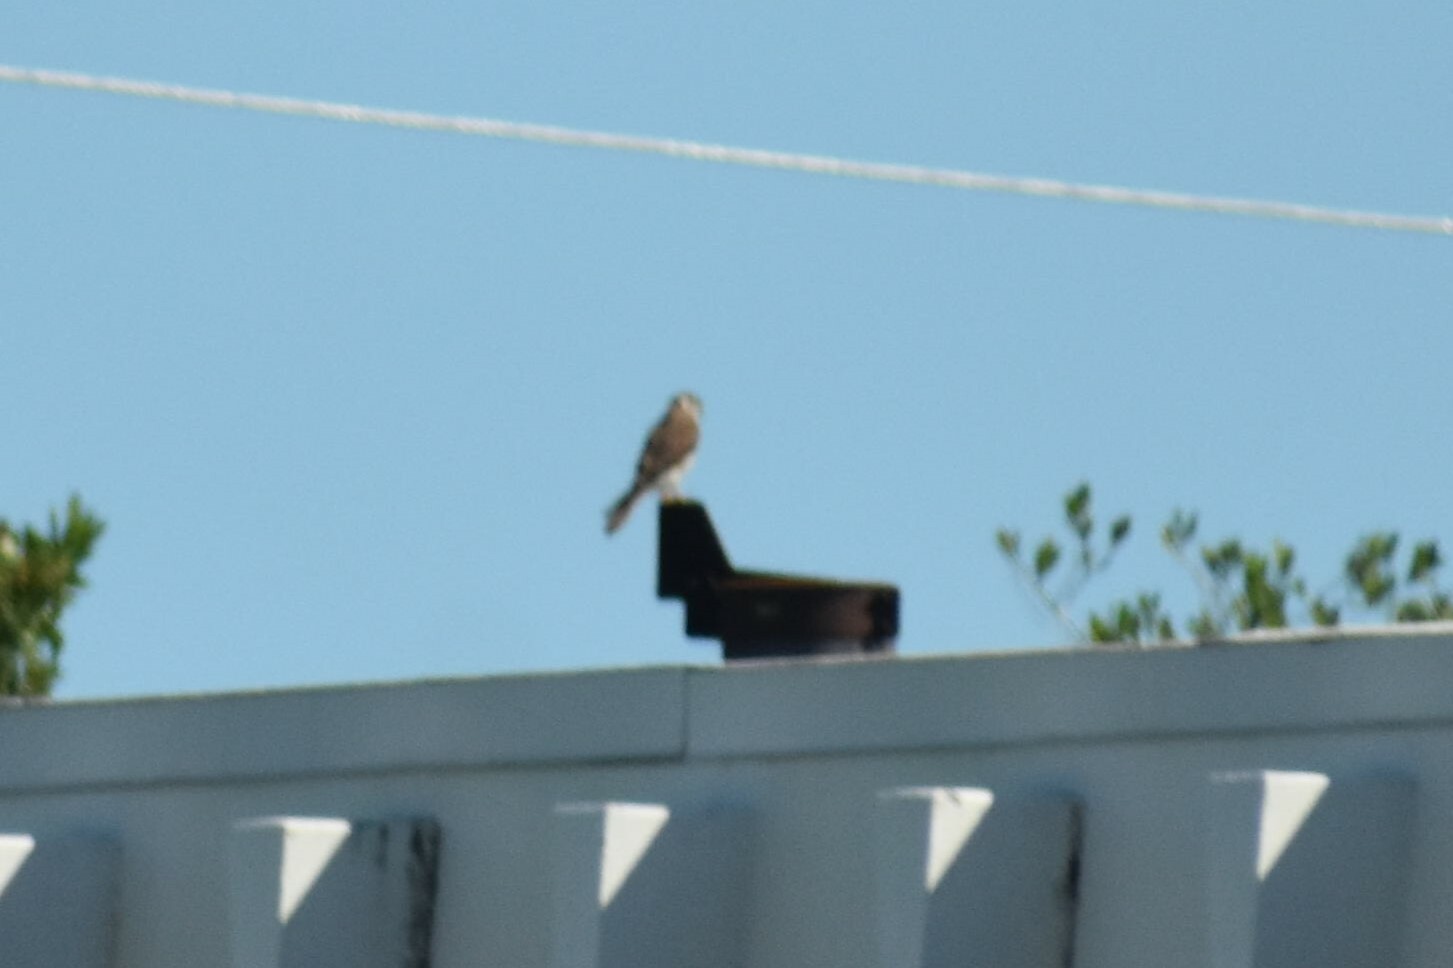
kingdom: Animalia
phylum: Chordata
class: Aves
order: Falconiformes
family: Falconidae
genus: Falco
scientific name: Falco sparverius
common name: American kestrel
